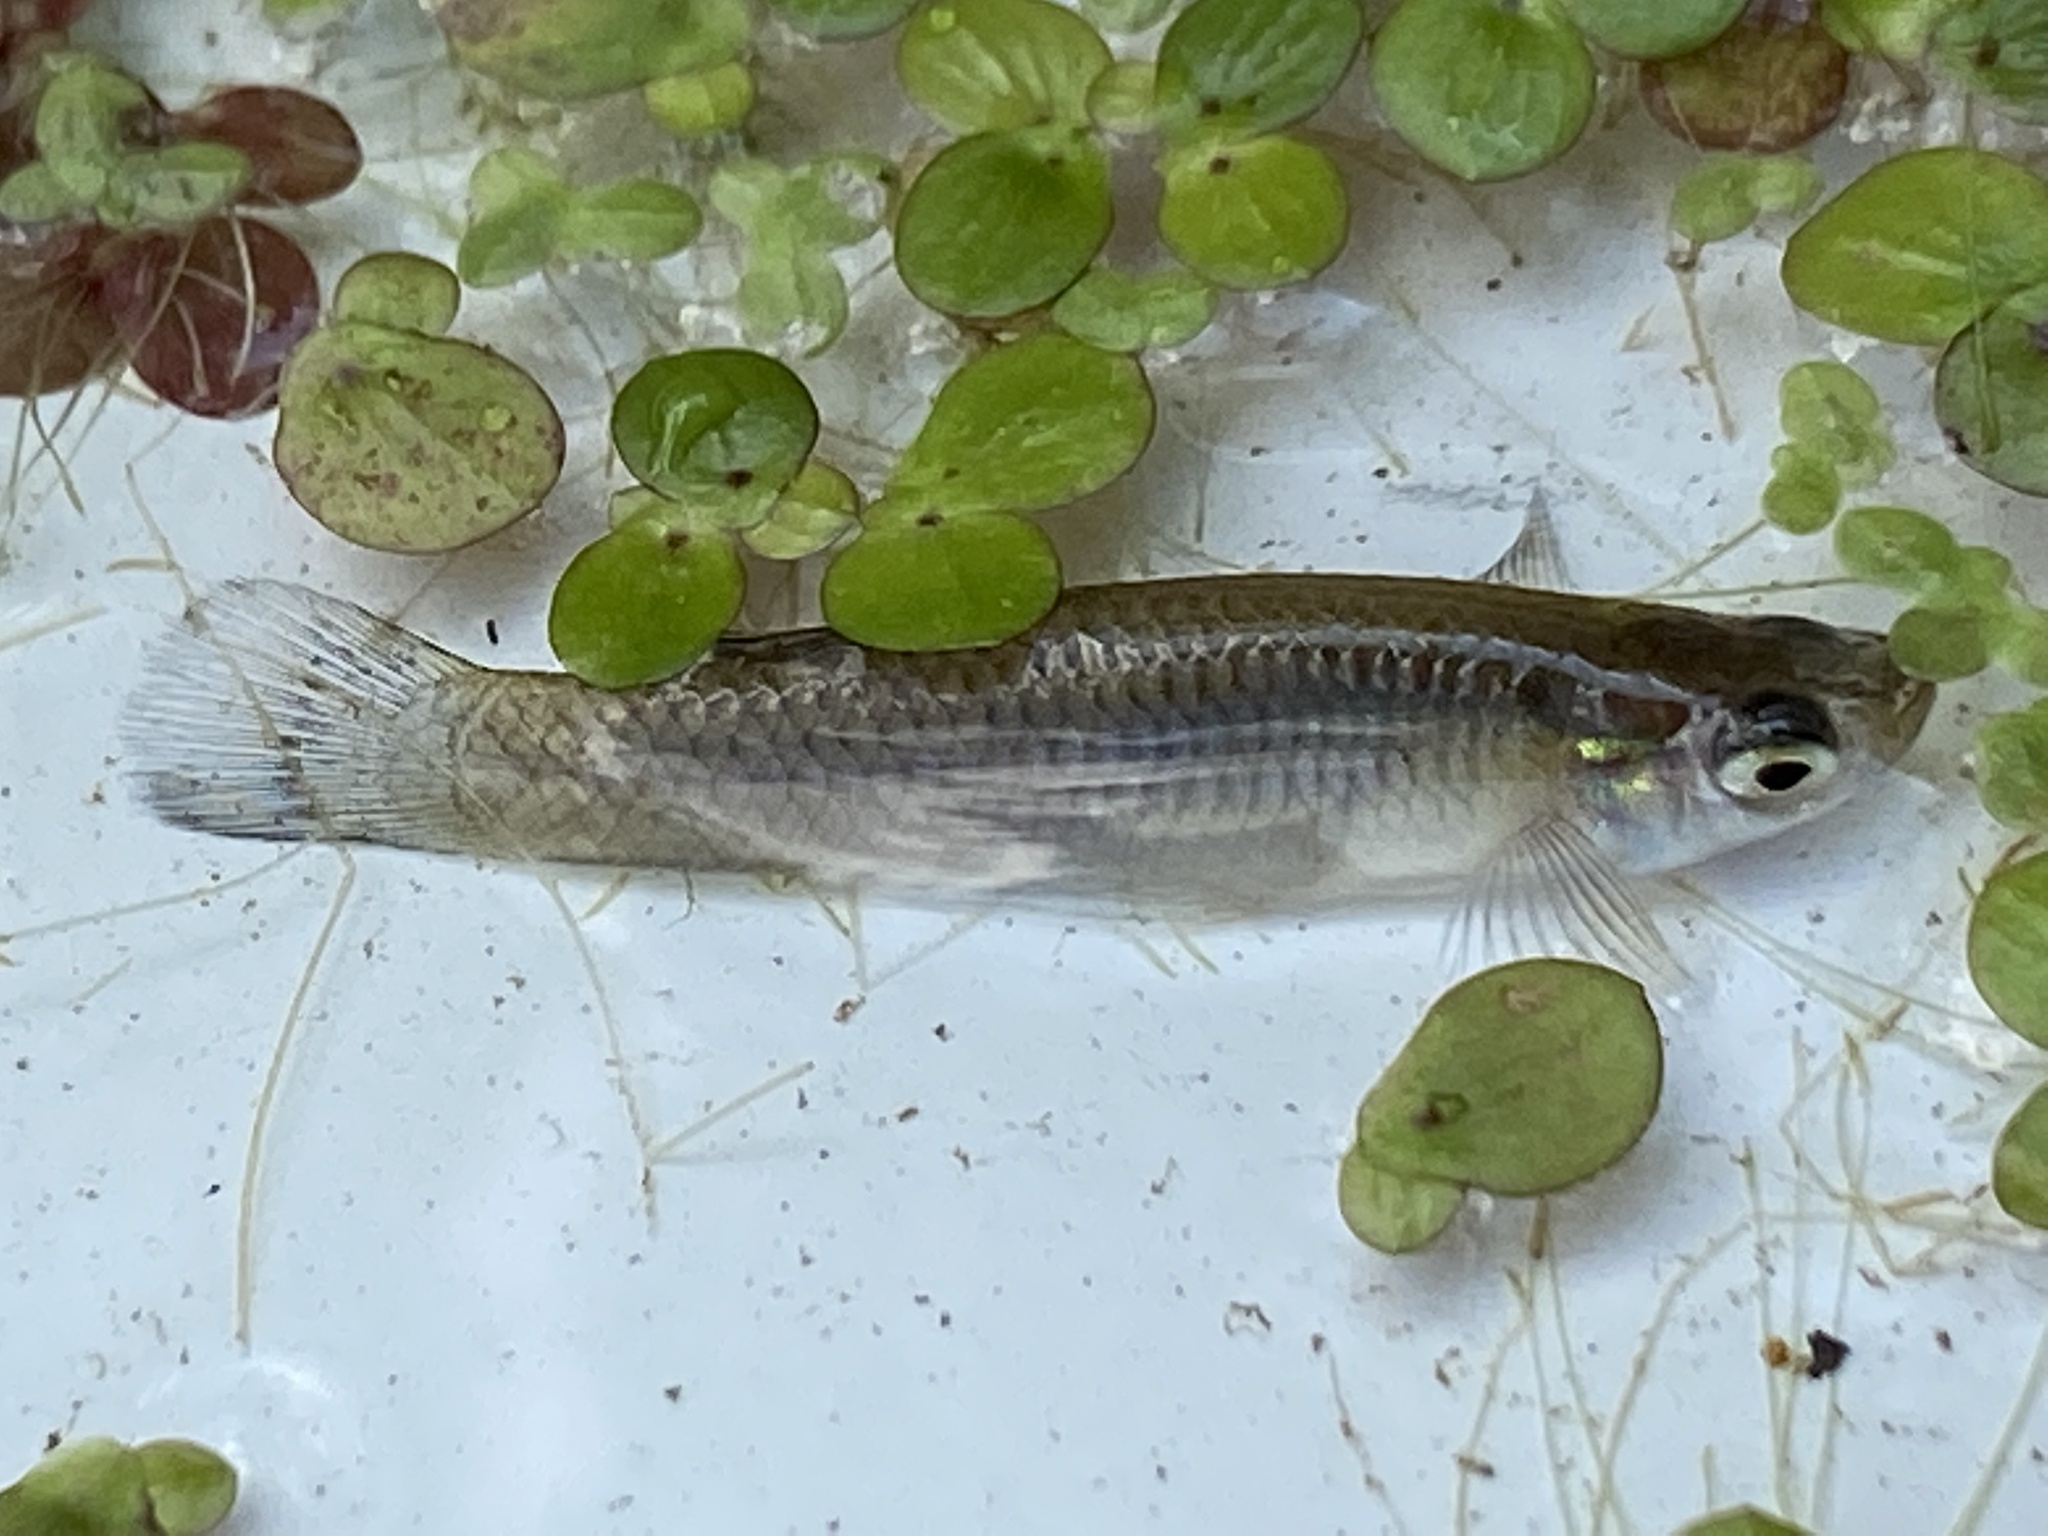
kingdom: Animalia
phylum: Chordata
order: Cyprinodontiformes
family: Poeciliidae
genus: Gambusia
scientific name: Gambusia affinis
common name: Mosquitofish
